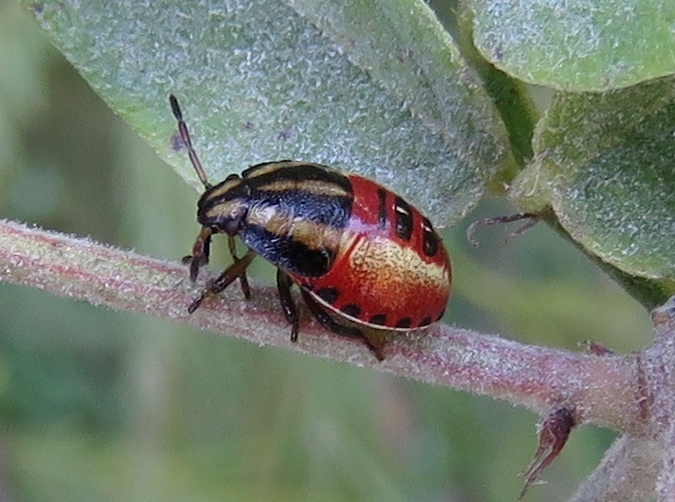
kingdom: Animalia
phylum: Arthropoda
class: Insecta
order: Hemiptera
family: Pentatomidae
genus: Piezodorus
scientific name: Piezodorus guildinii
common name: Redbanded stink bug
